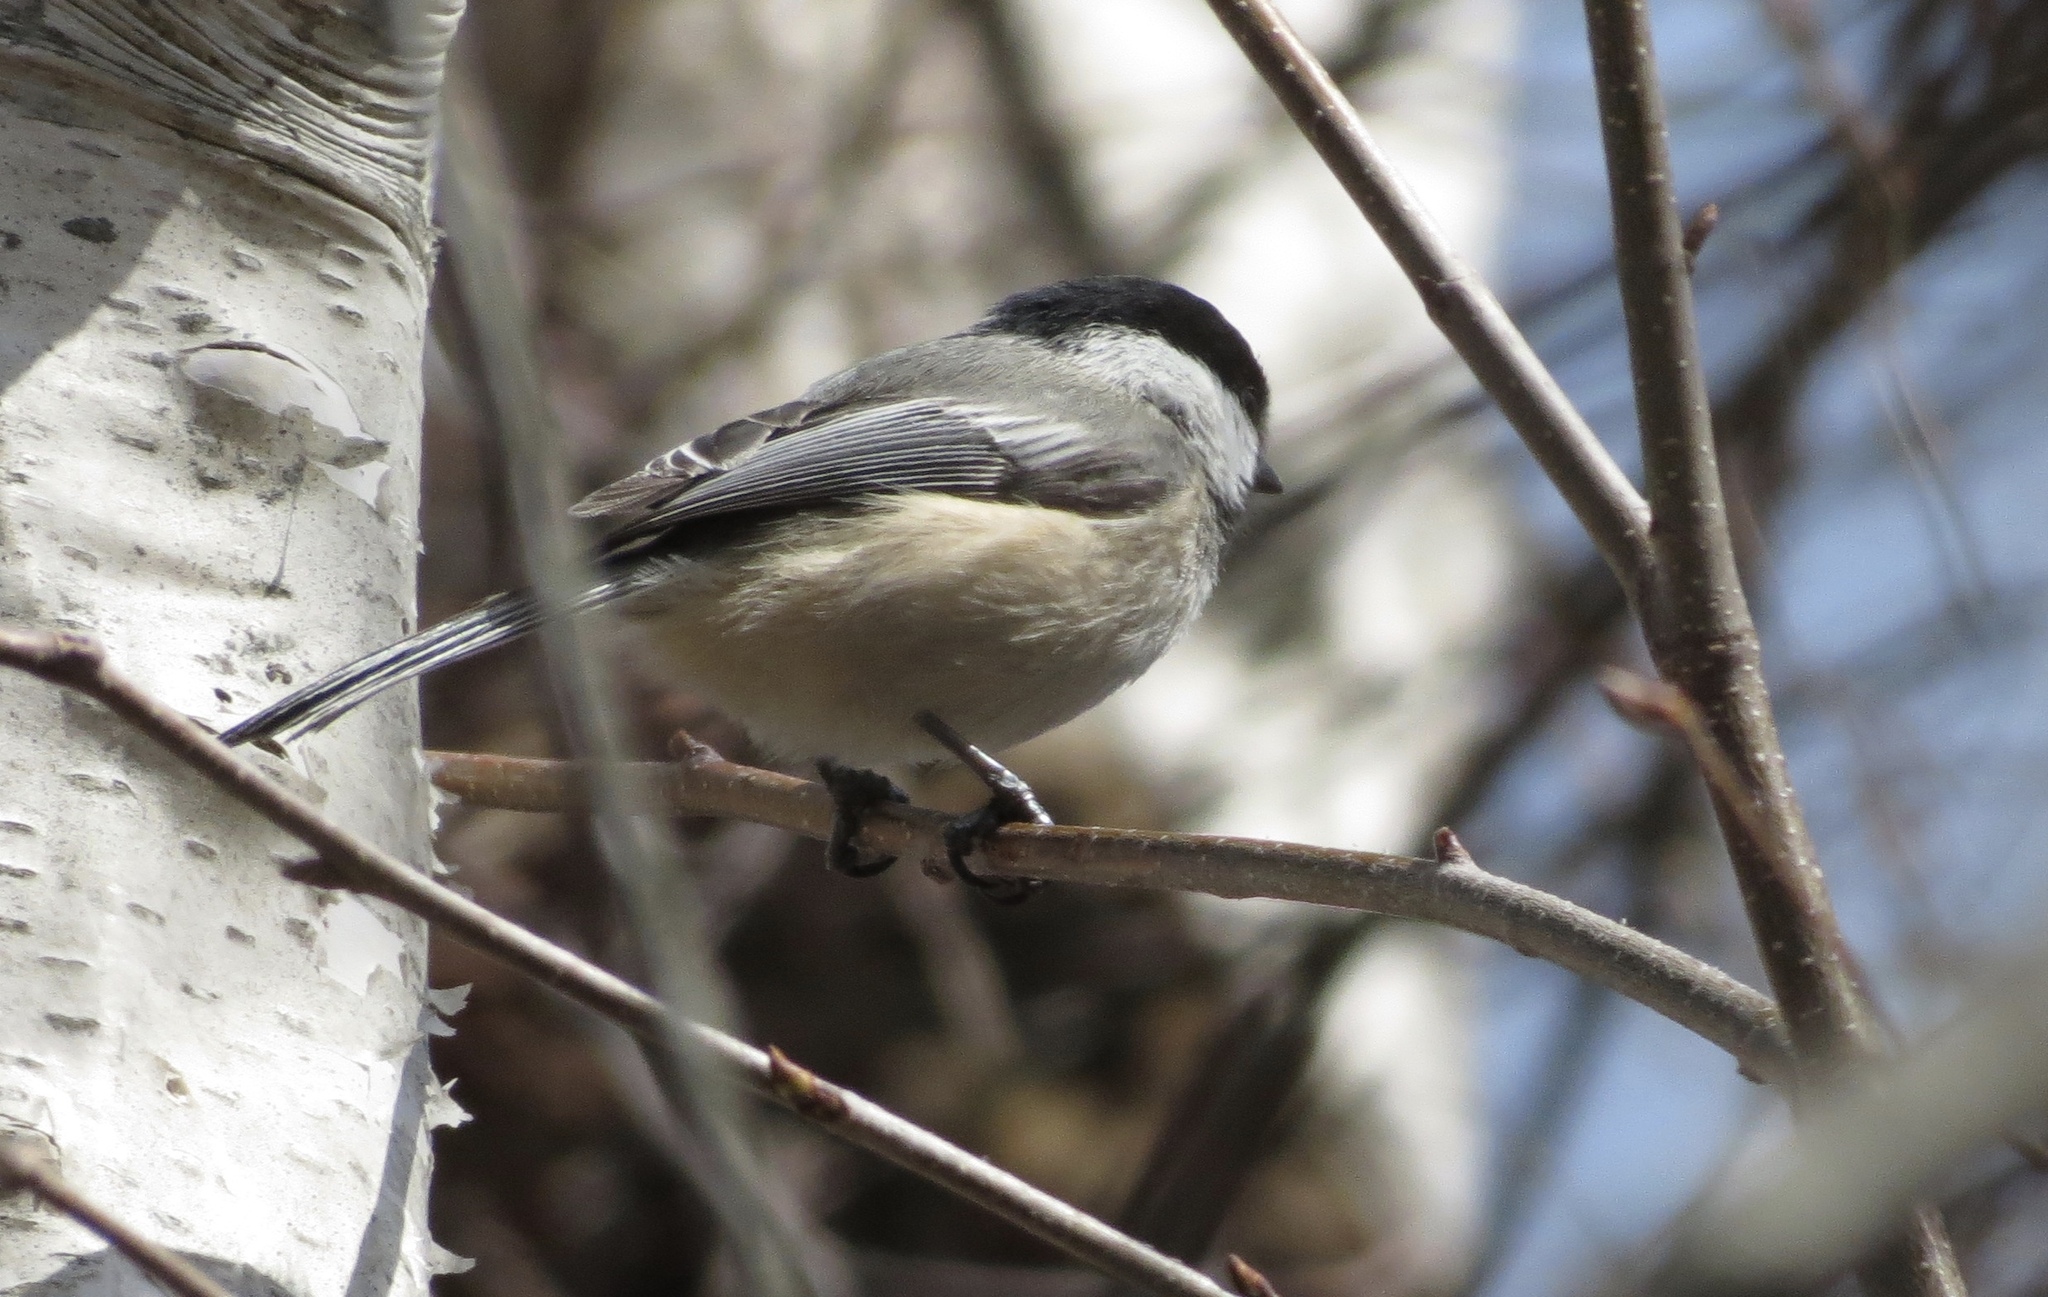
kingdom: Animalia
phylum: Chordata
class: Aves
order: Passeriformes
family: Paridae
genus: Poecile
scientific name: Poecile atricapillus
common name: Black-capped chickadee
